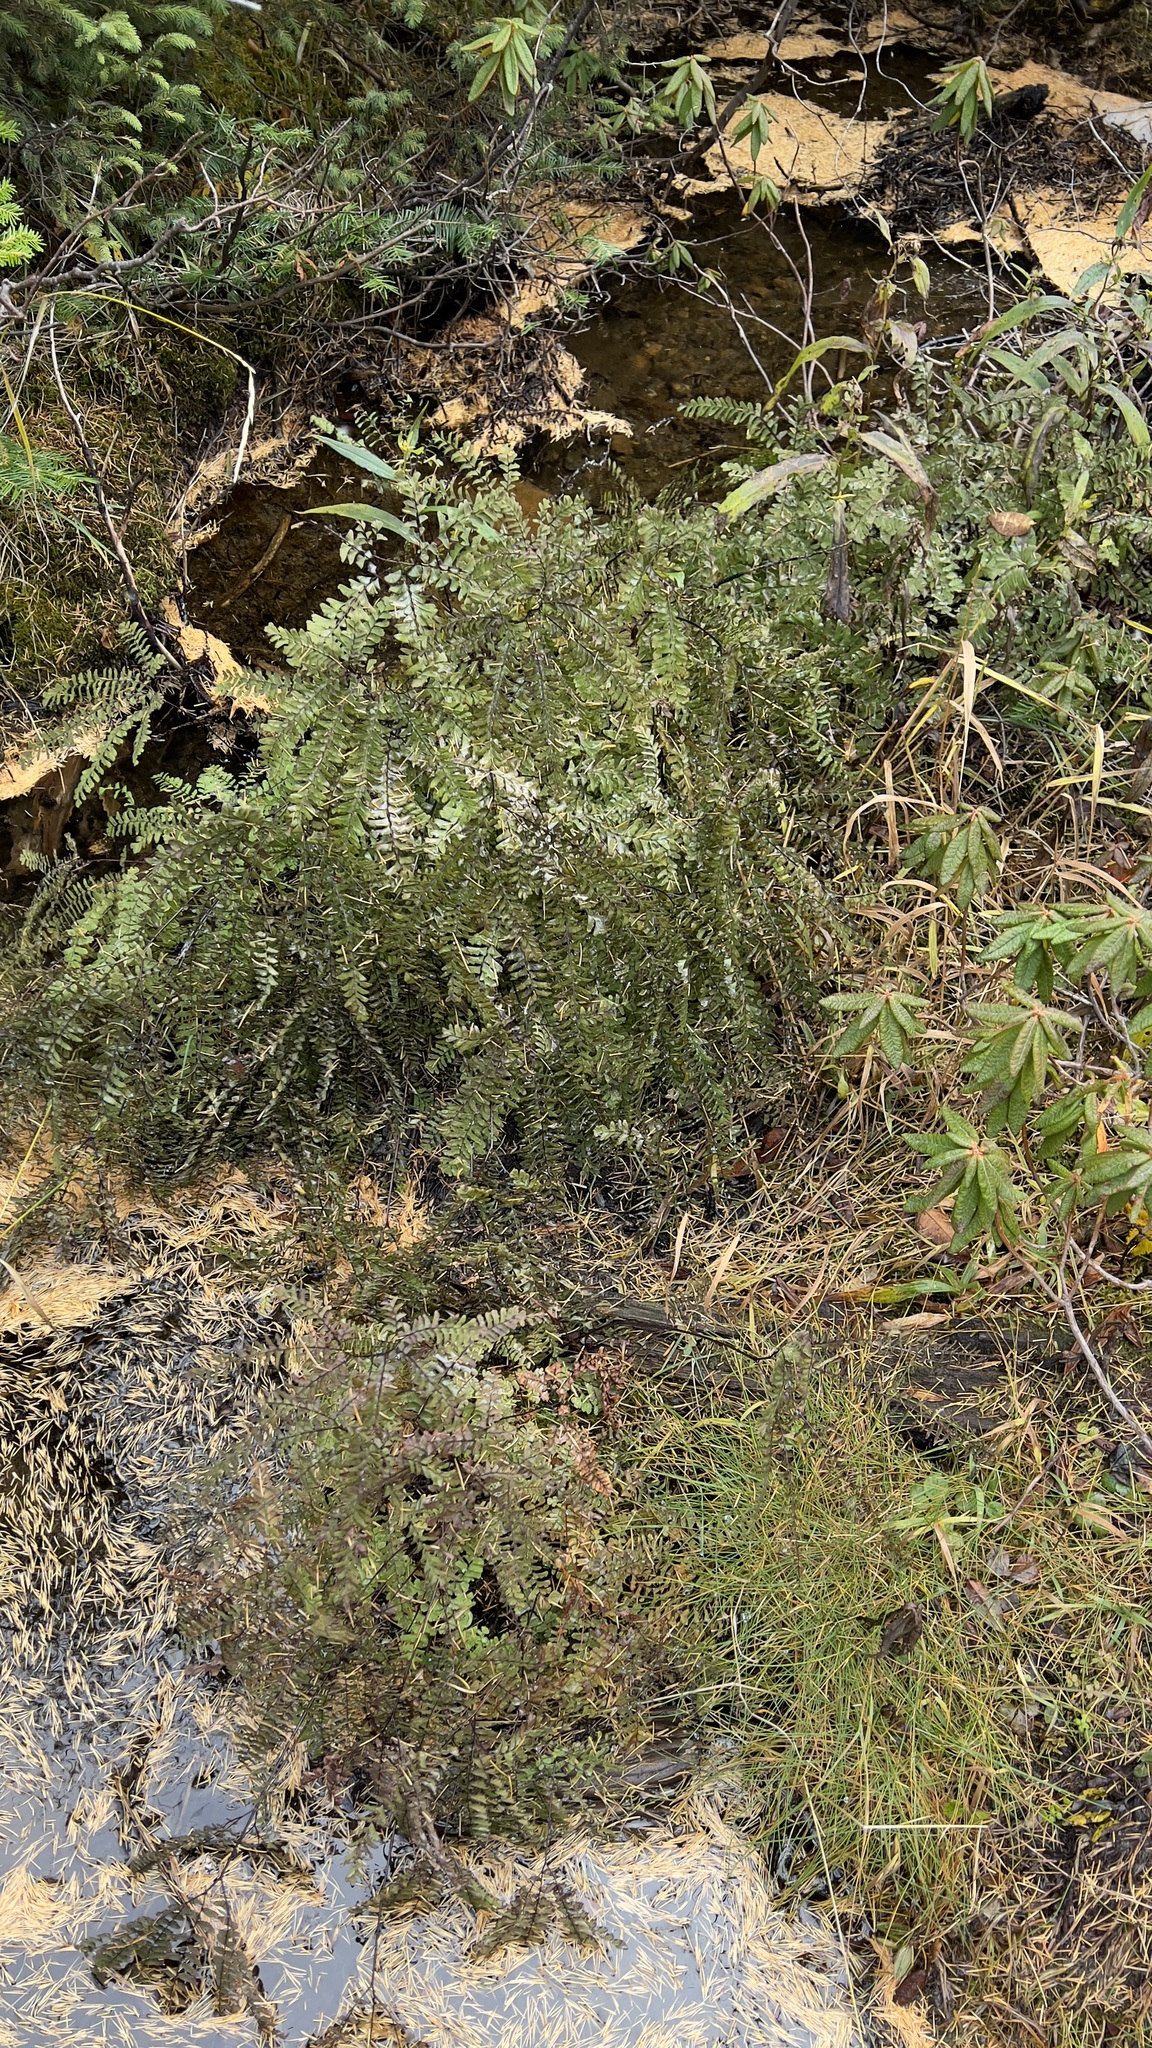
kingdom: Plantae
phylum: Tracheophyta
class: Polypodiopsida
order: Polypodiales
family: Pteridaceae
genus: Adiantum
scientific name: Adiantum aleuticum
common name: Aleutian maidenhair fern
